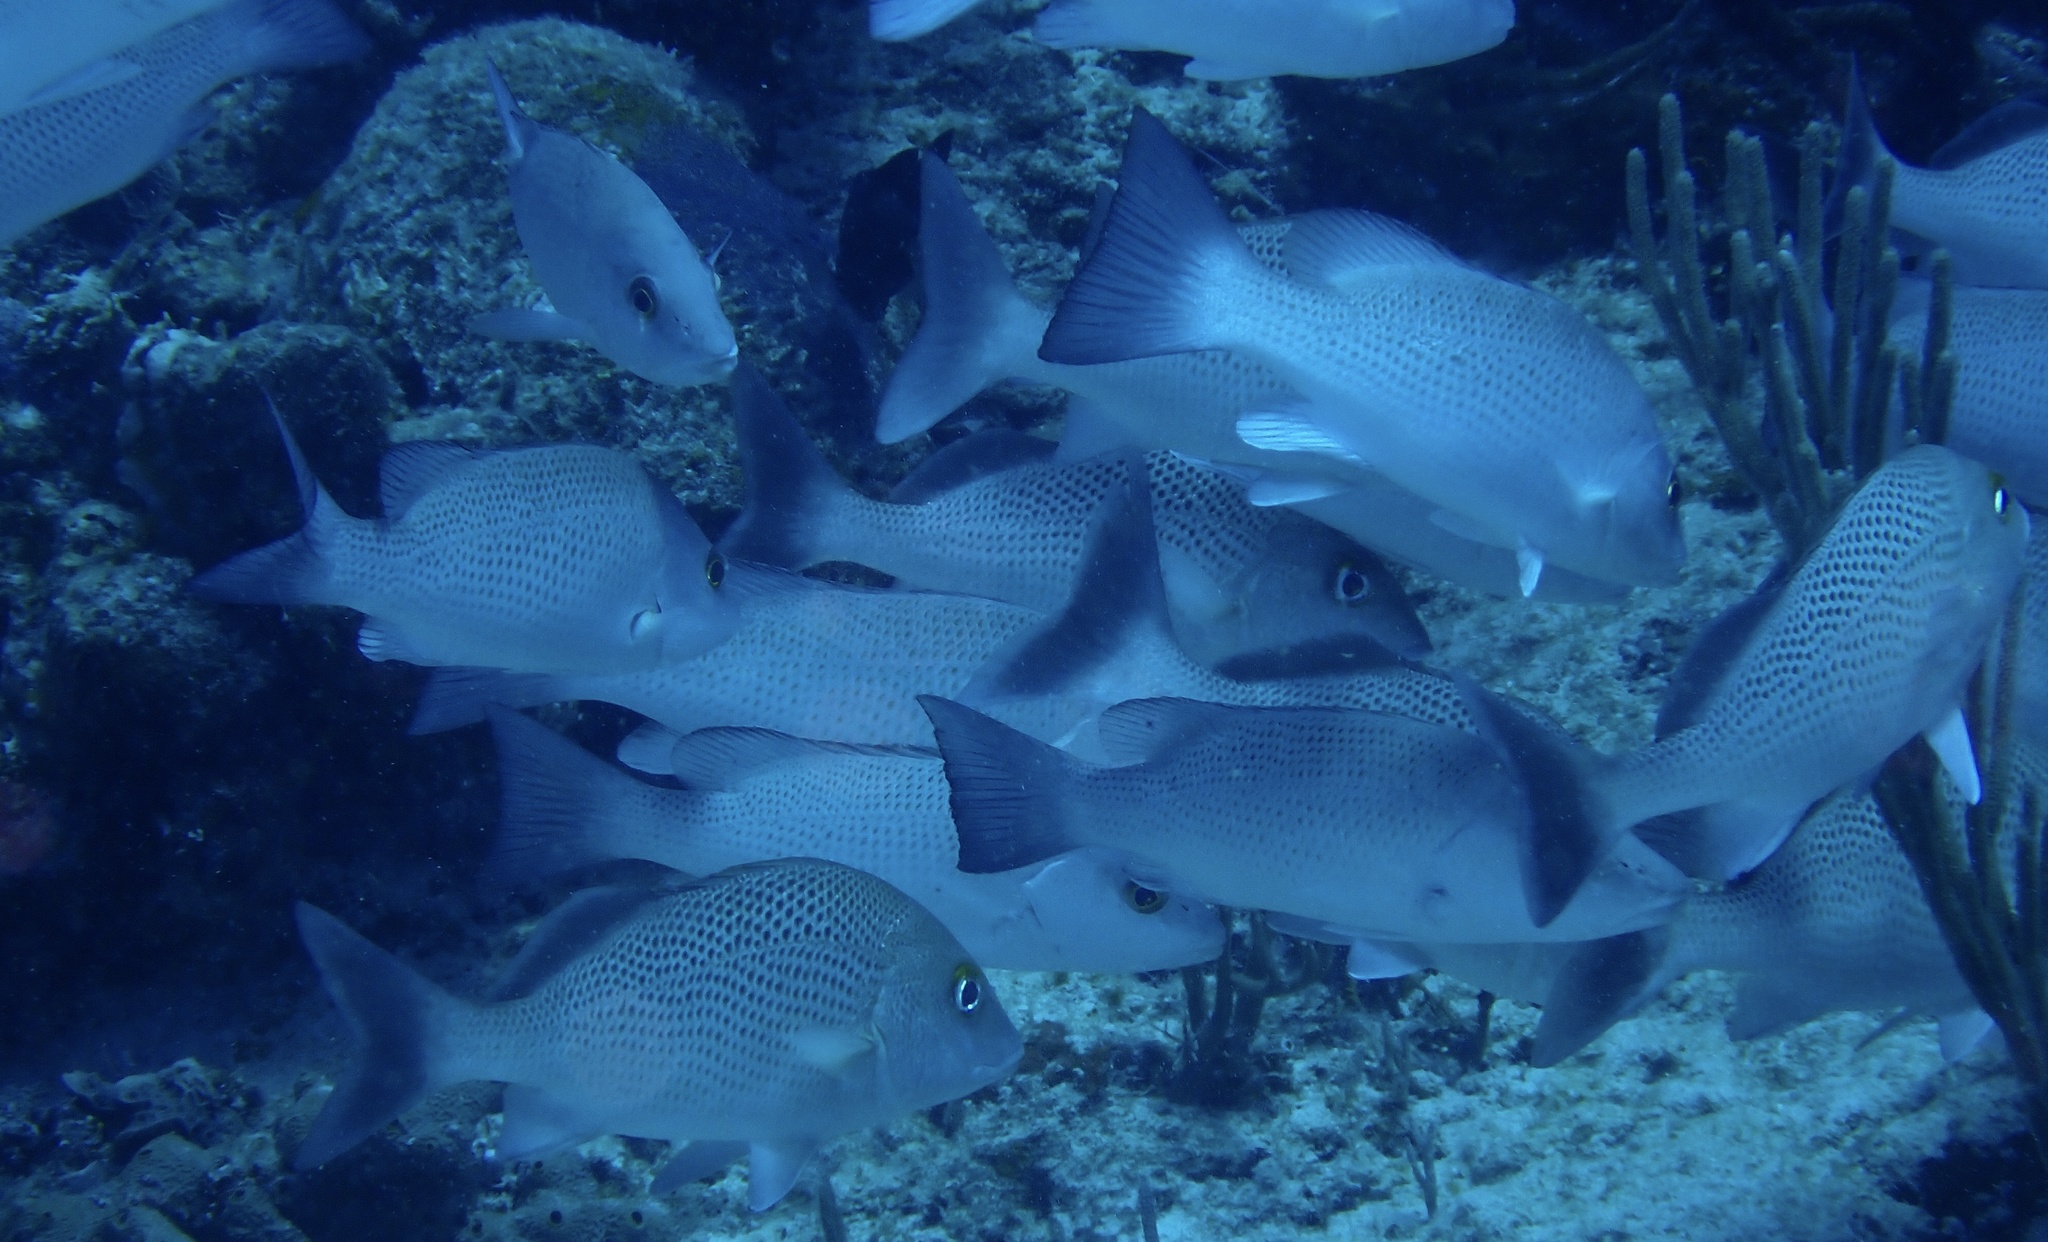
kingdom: Animalia
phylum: Chordata
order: Perciformes
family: Haemulidae
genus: Haemulon
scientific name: Haemulon parra
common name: Sailor's choice
